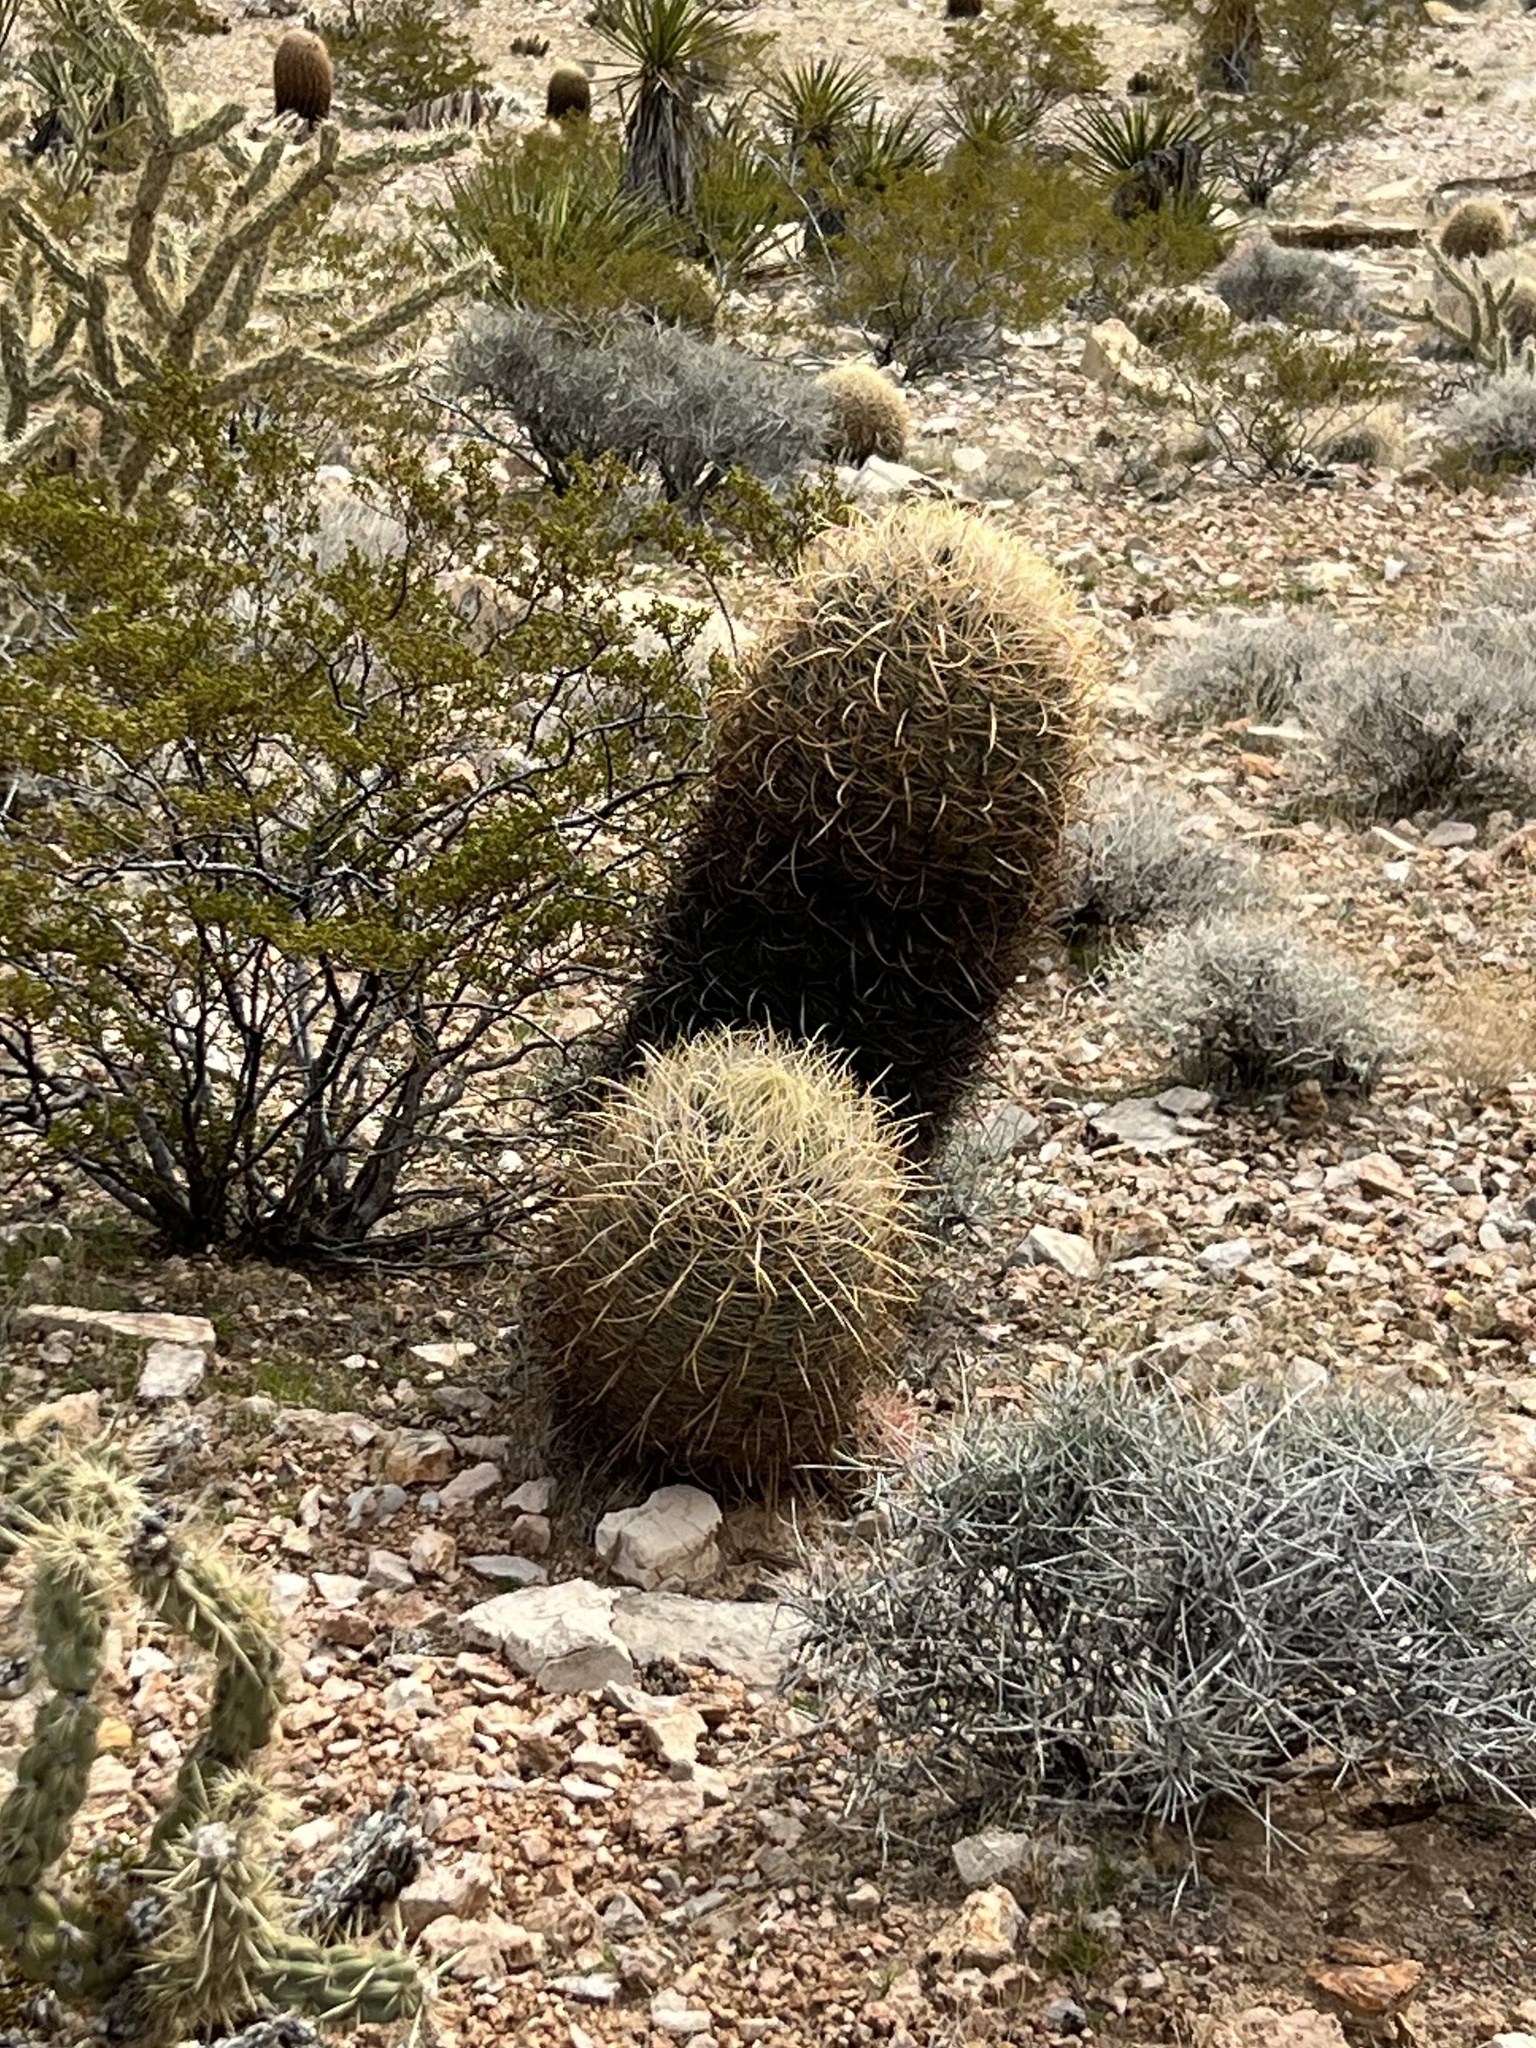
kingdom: Plantae
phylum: Tracheophyta
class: Magnoliopsida
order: Caryophyllales
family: Cactaceae
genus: Ferocactus
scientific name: Ferocactus cylindraceus
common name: California barrel cactus
